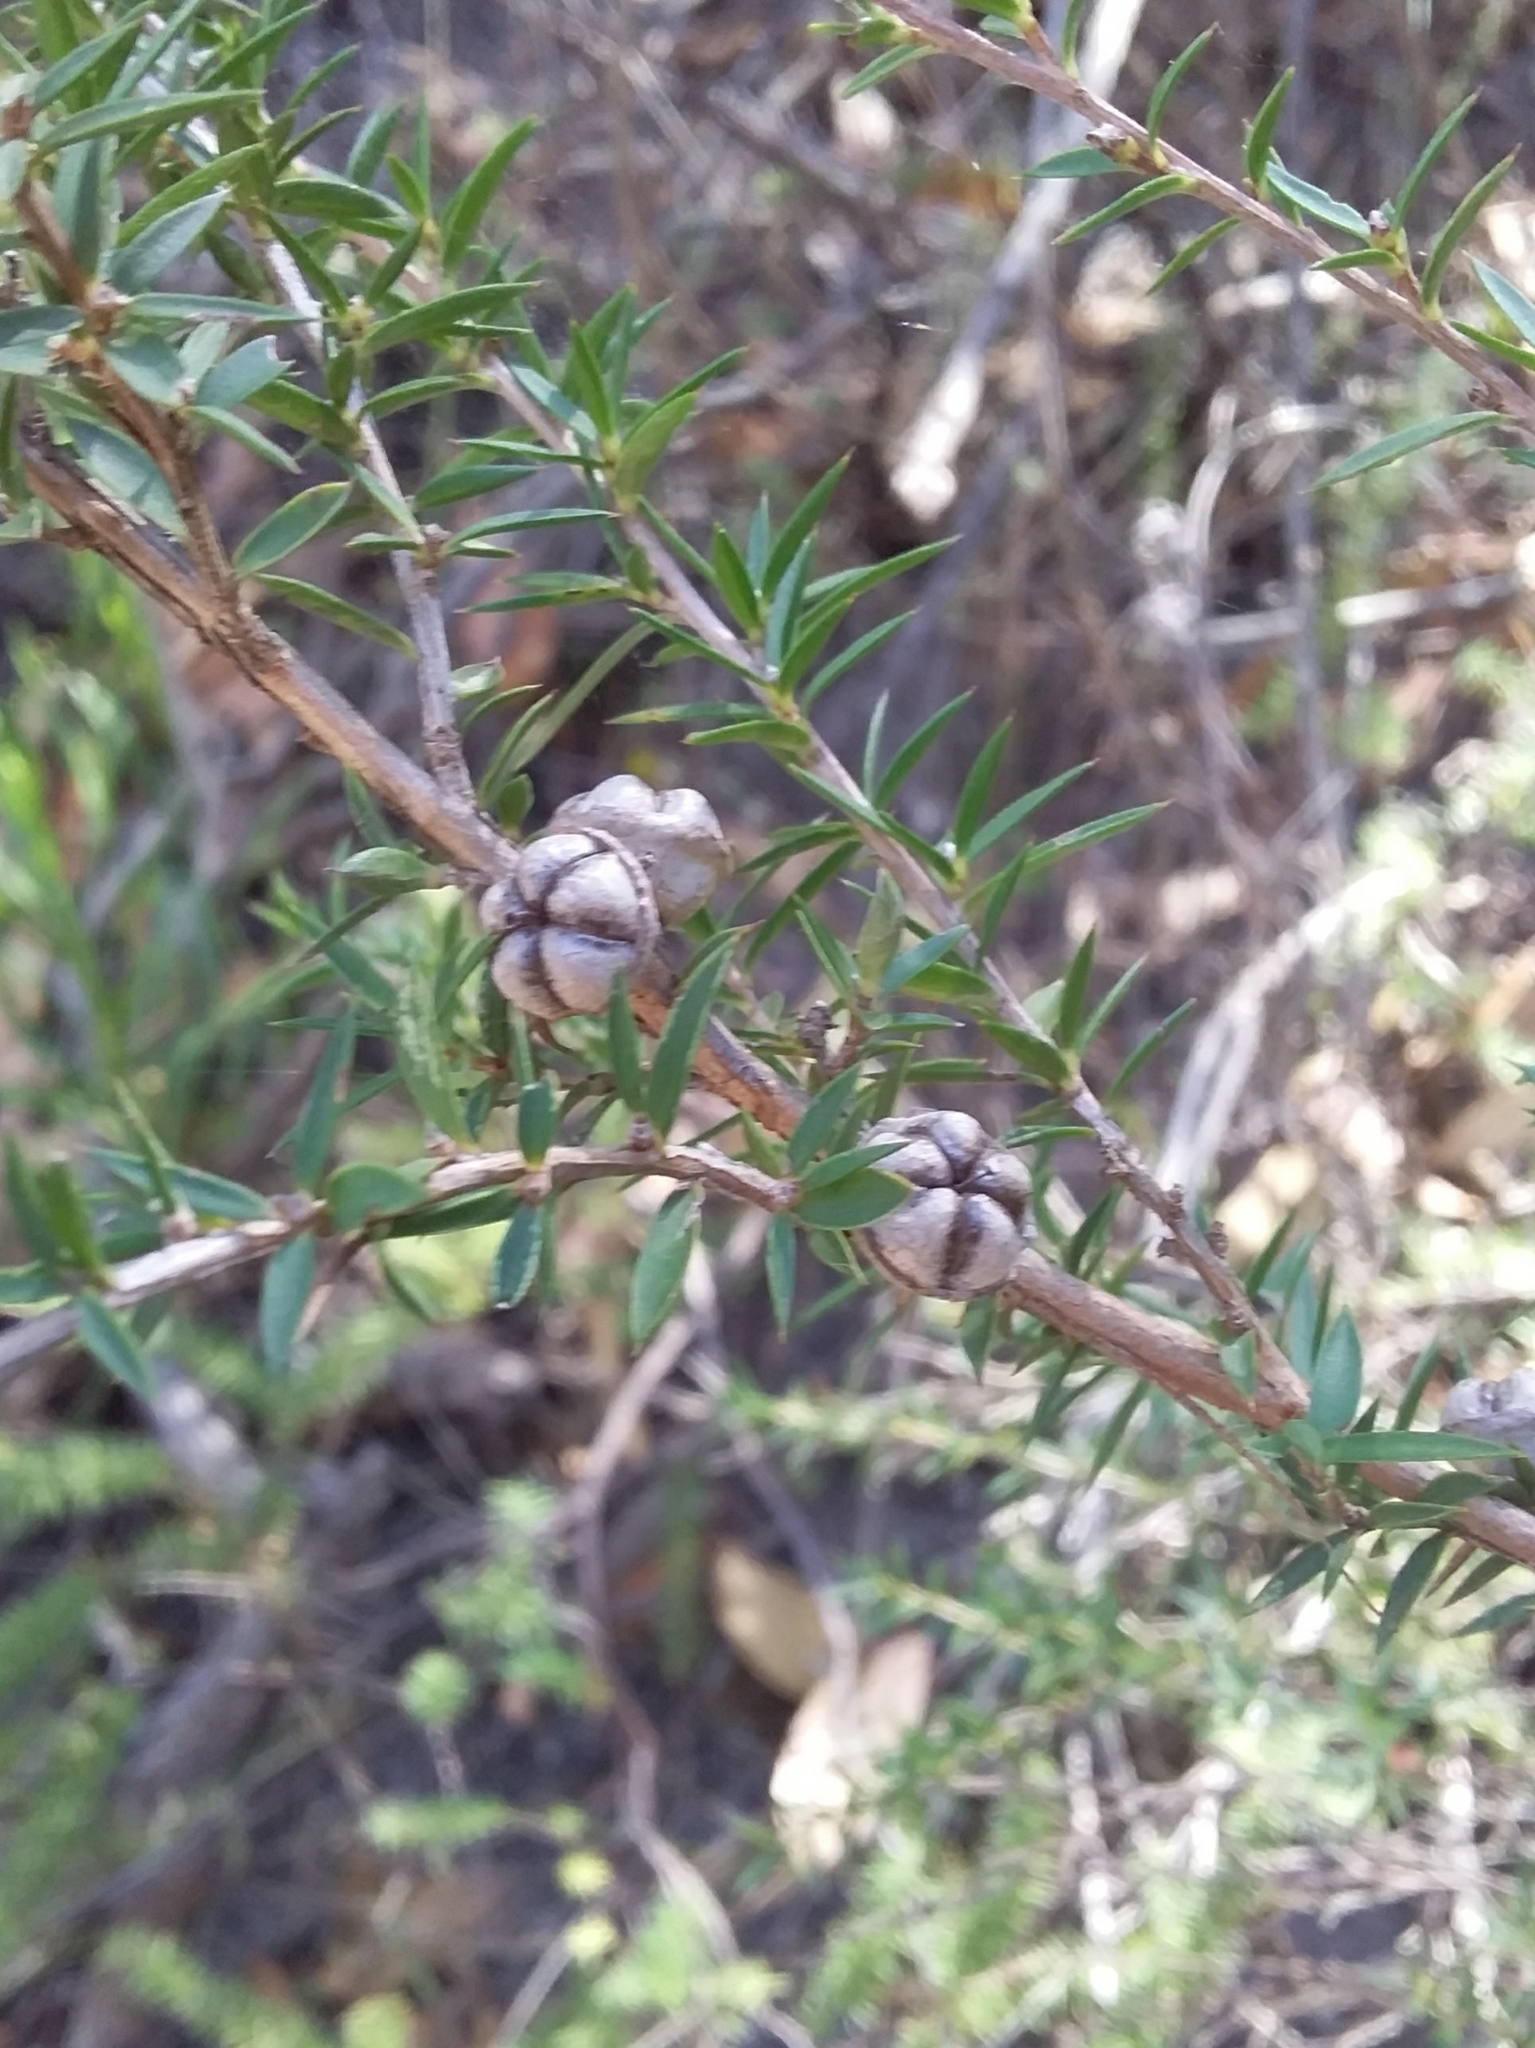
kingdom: Plantae
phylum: Tracheophyta
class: Magnoliopsida
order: Myrtales
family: Myrtaceae
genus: Leptospermum
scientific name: Leptospermum continentale
